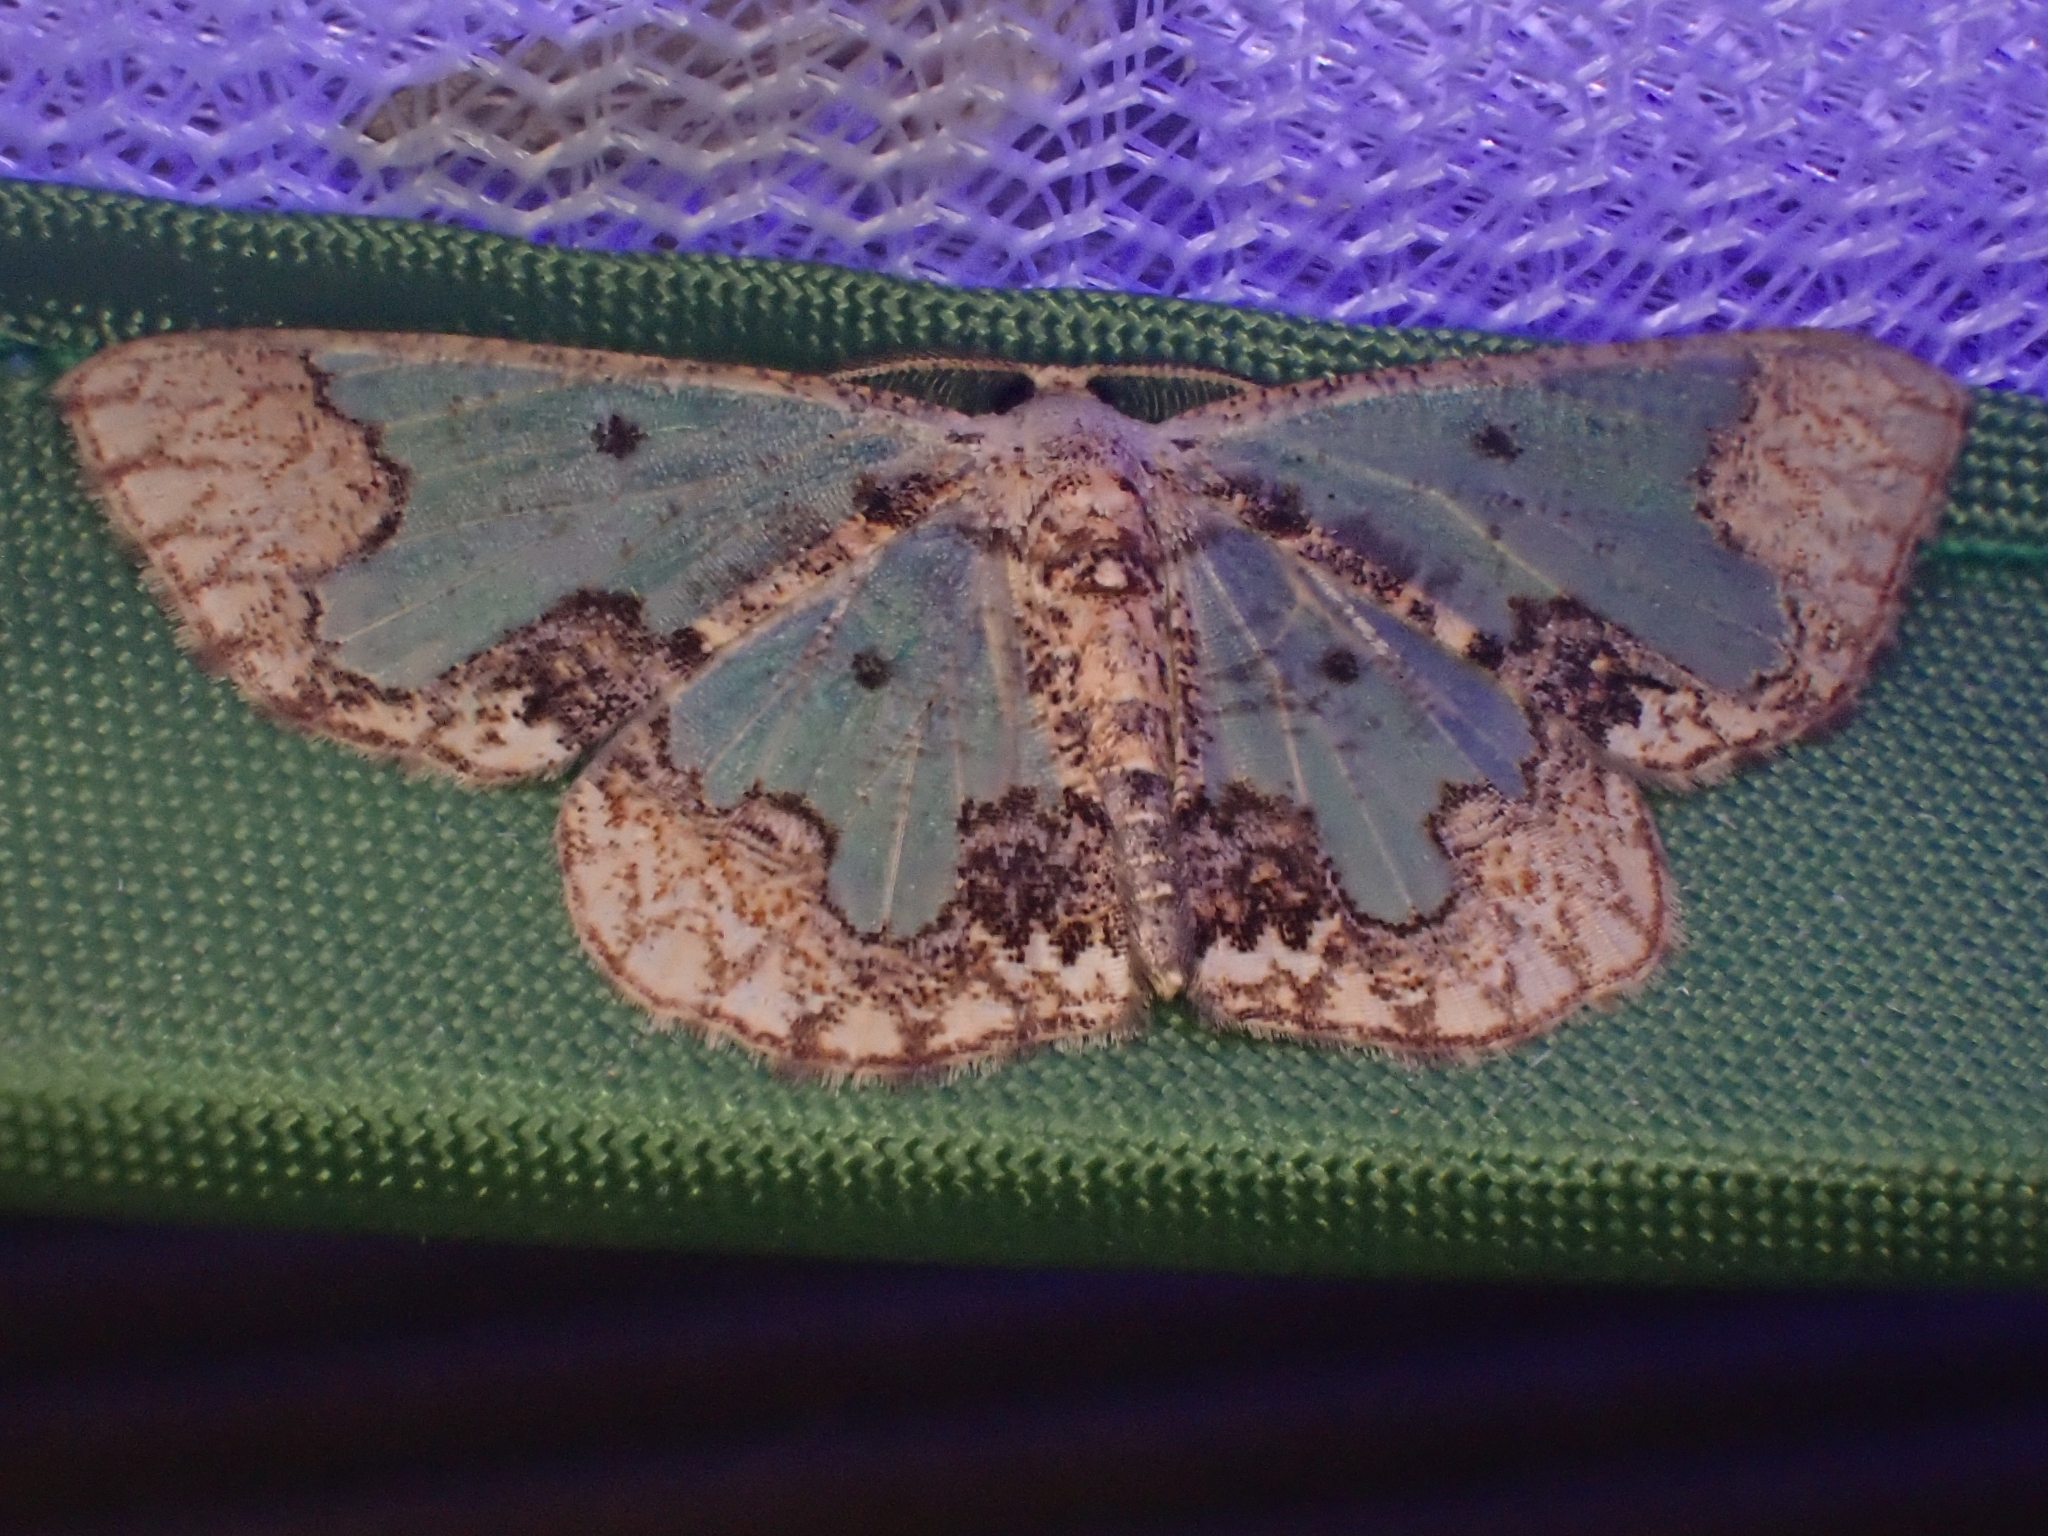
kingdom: Animalia
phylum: Arthropoda
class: Insecta
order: Lepidoptera
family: Geometridae
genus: Zamarada
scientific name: Zamarada dentigera
